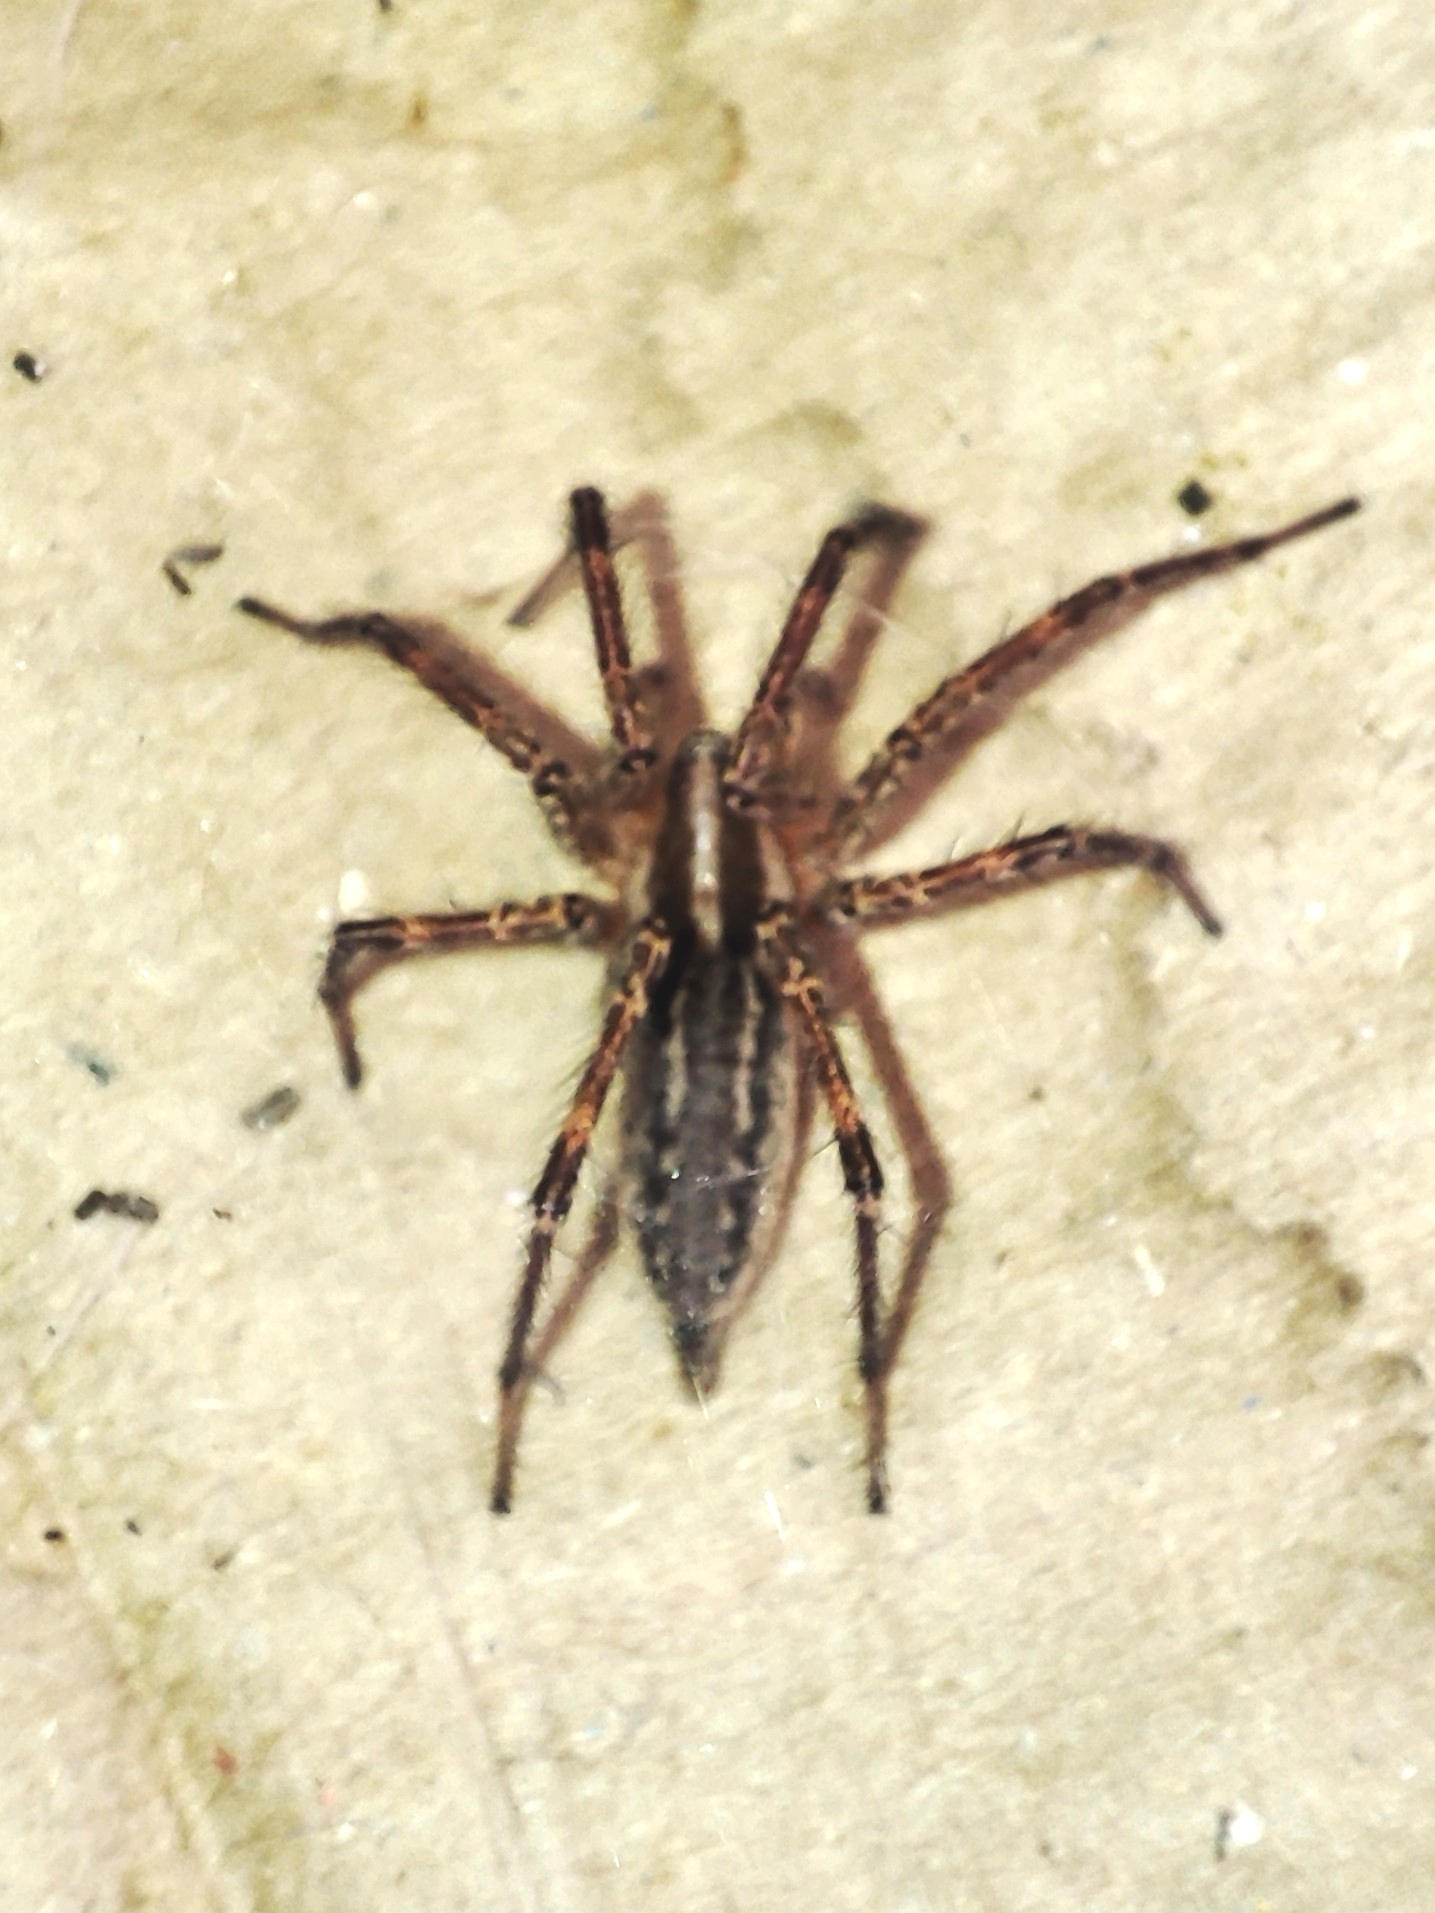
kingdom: Animalia
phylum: Arthropoda
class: Arachnida
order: Araneae
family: Agelenidae
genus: Agelenopsis
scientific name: Agelenopsis potteri
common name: Potter's grass spider
